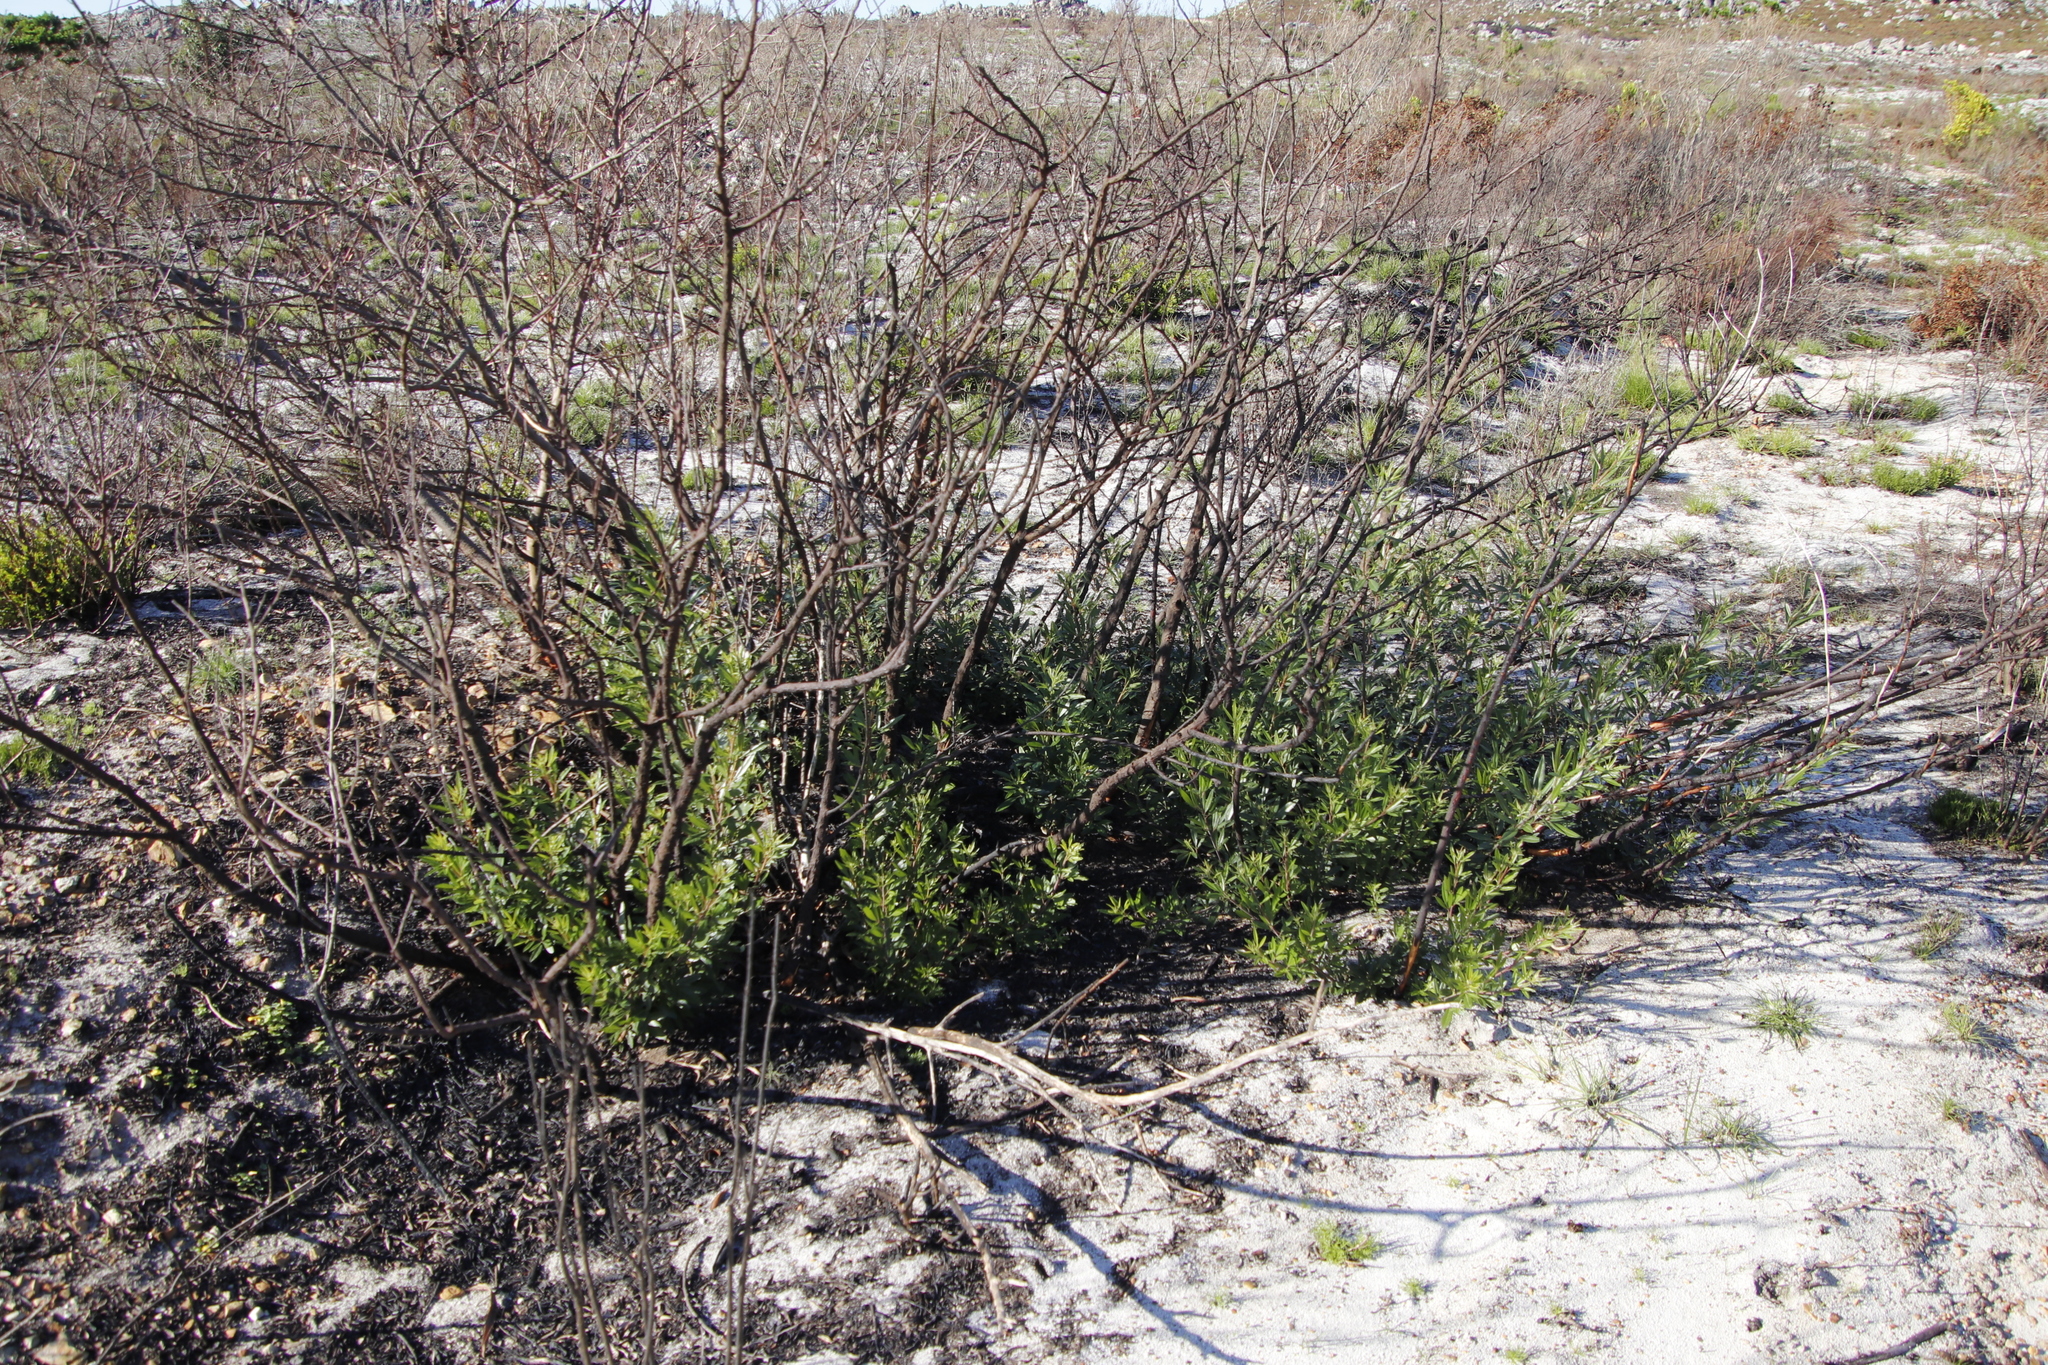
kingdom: Plantae
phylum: Tracheophyta
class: Magnoliopsida
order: Sapindales
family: Anacardiaceae
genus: Searsia
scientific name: Searsia angustifolia
